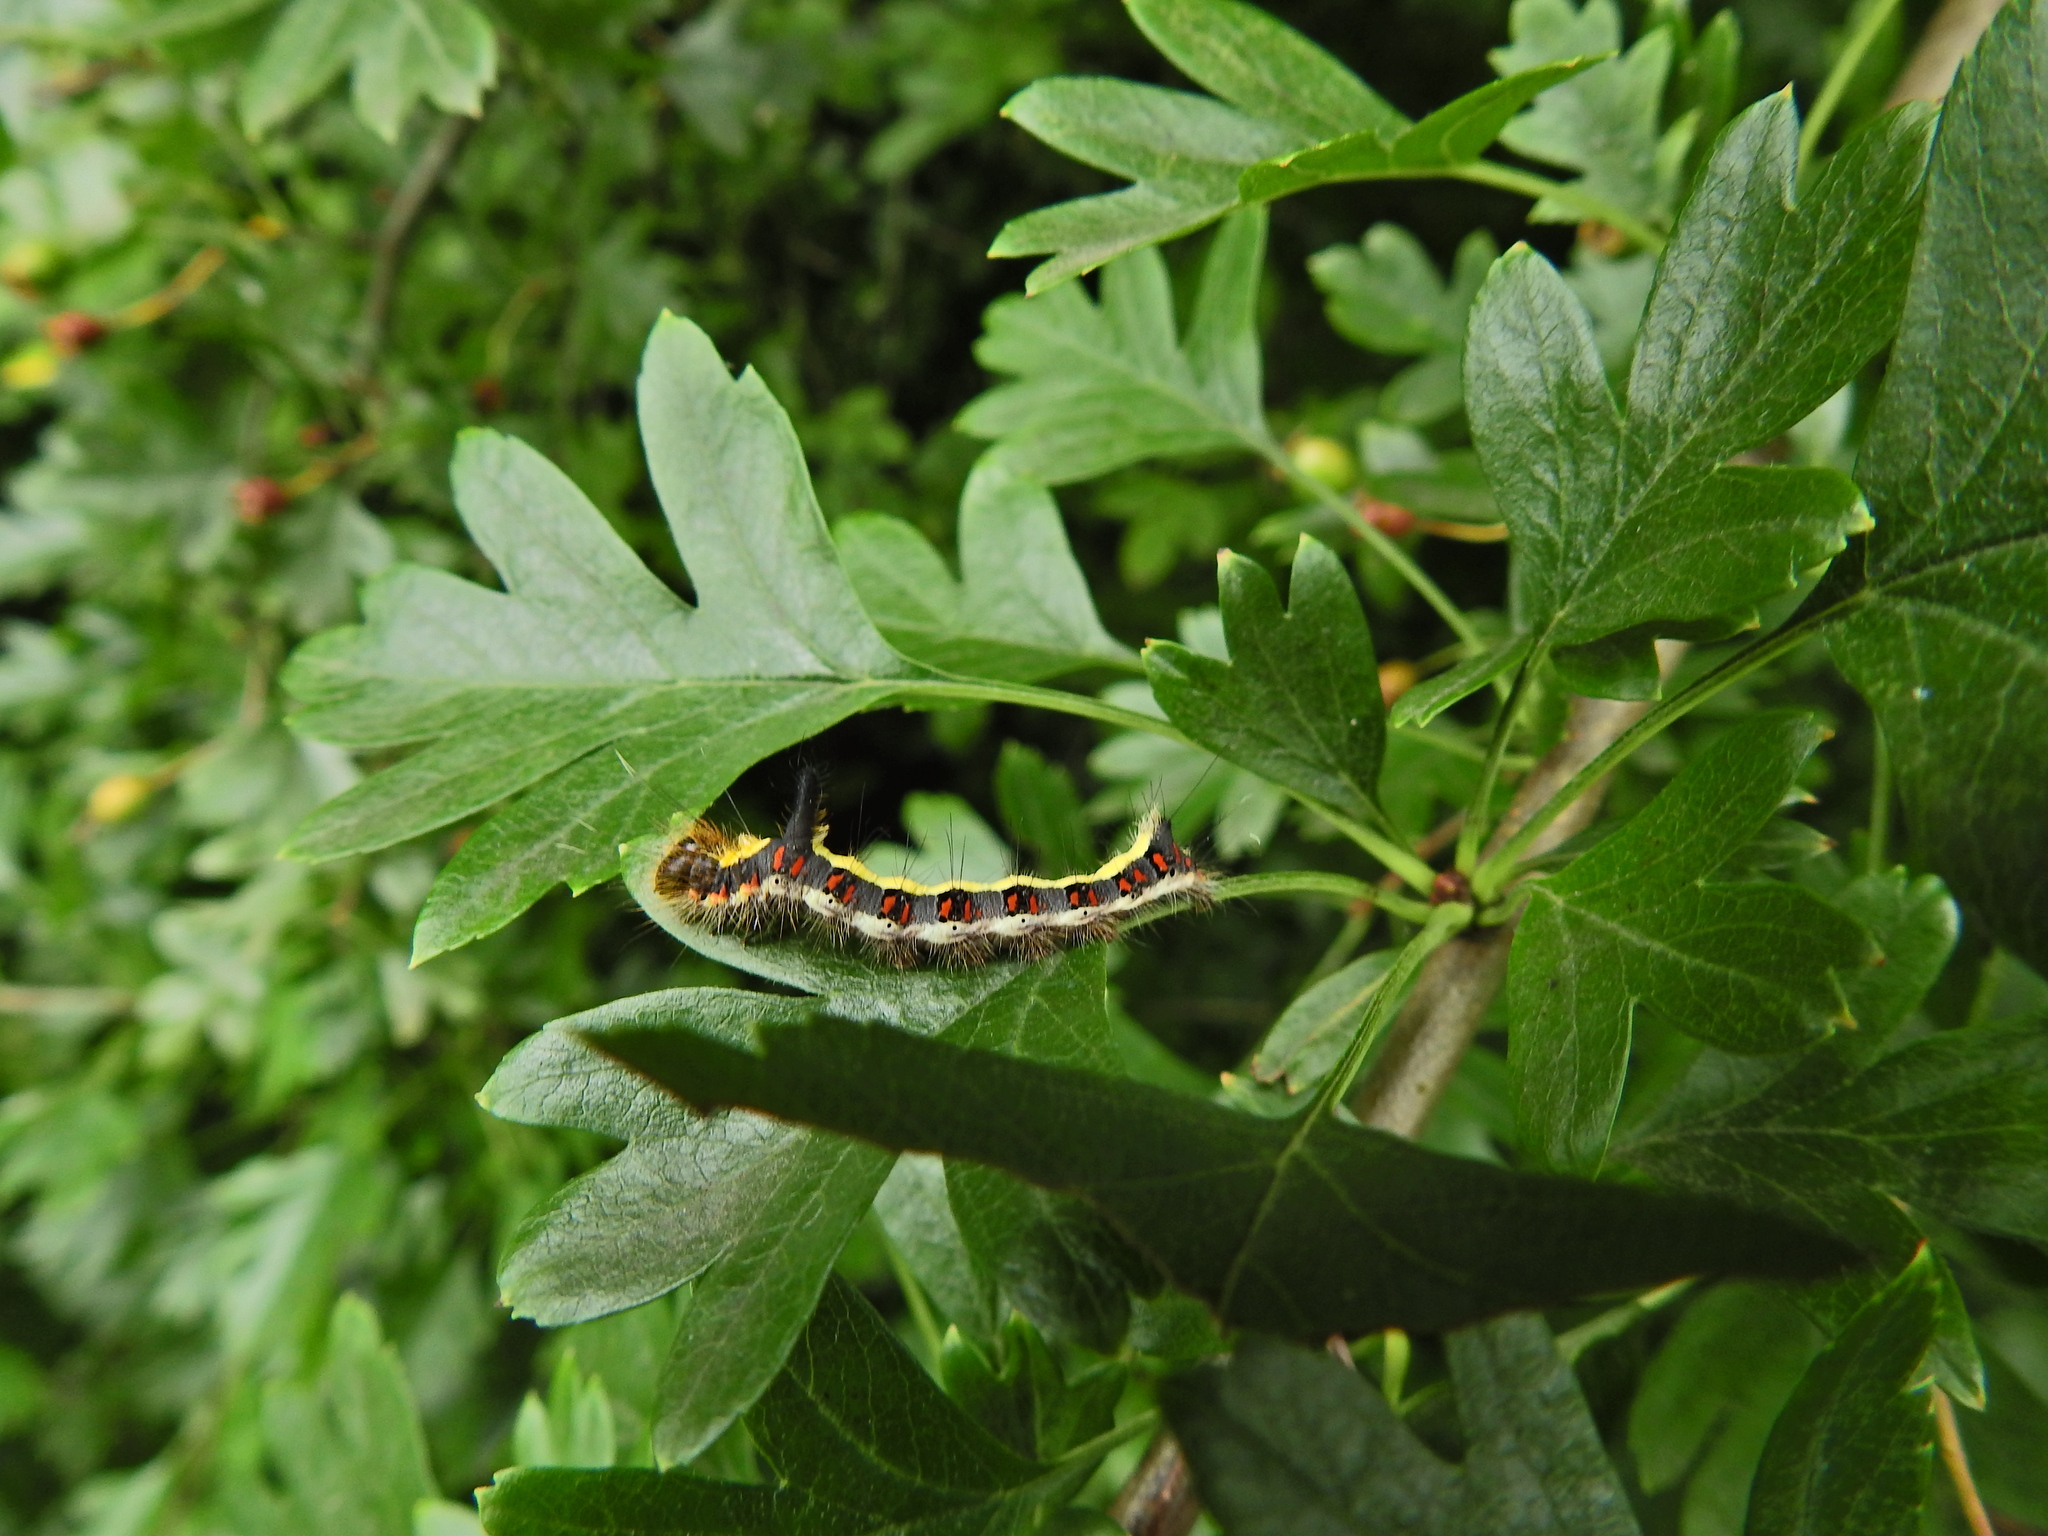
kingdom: Animalia
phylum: Arthropoda
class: Insecta
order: Lepidoptera
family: Noctuidae
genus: Acronicta
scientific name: Acronicta psi
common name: Grey dagger
